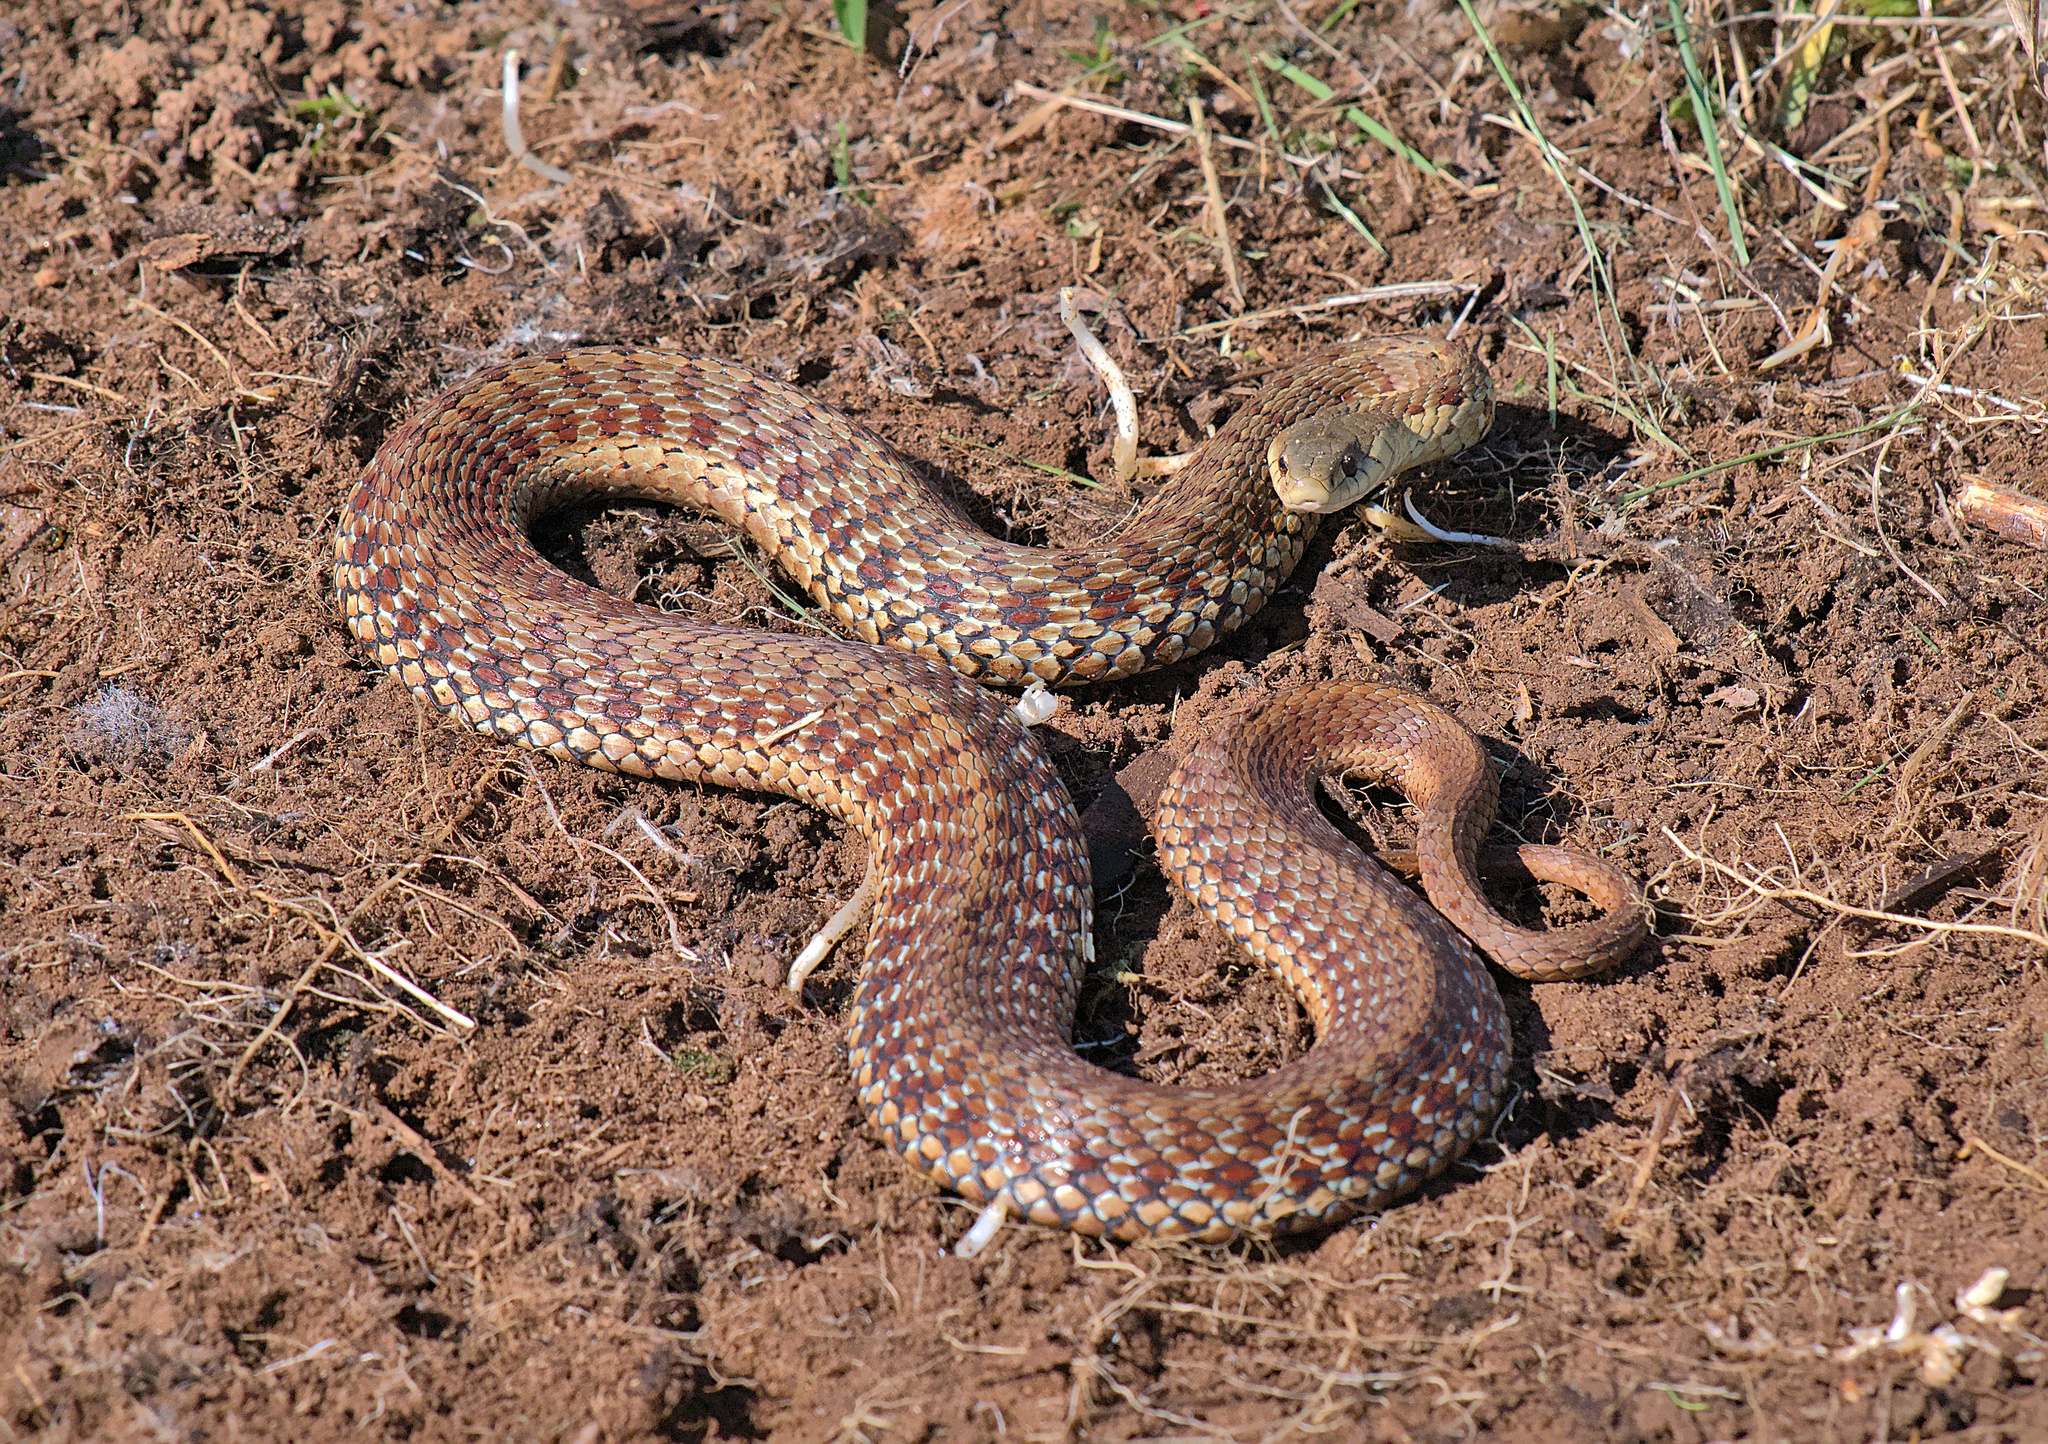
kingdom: Animalia
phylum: Chordata
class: Squamata
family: Colubridae
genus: Thamnophis
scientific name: Thamnophis sirtalis
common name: Common garter snake
